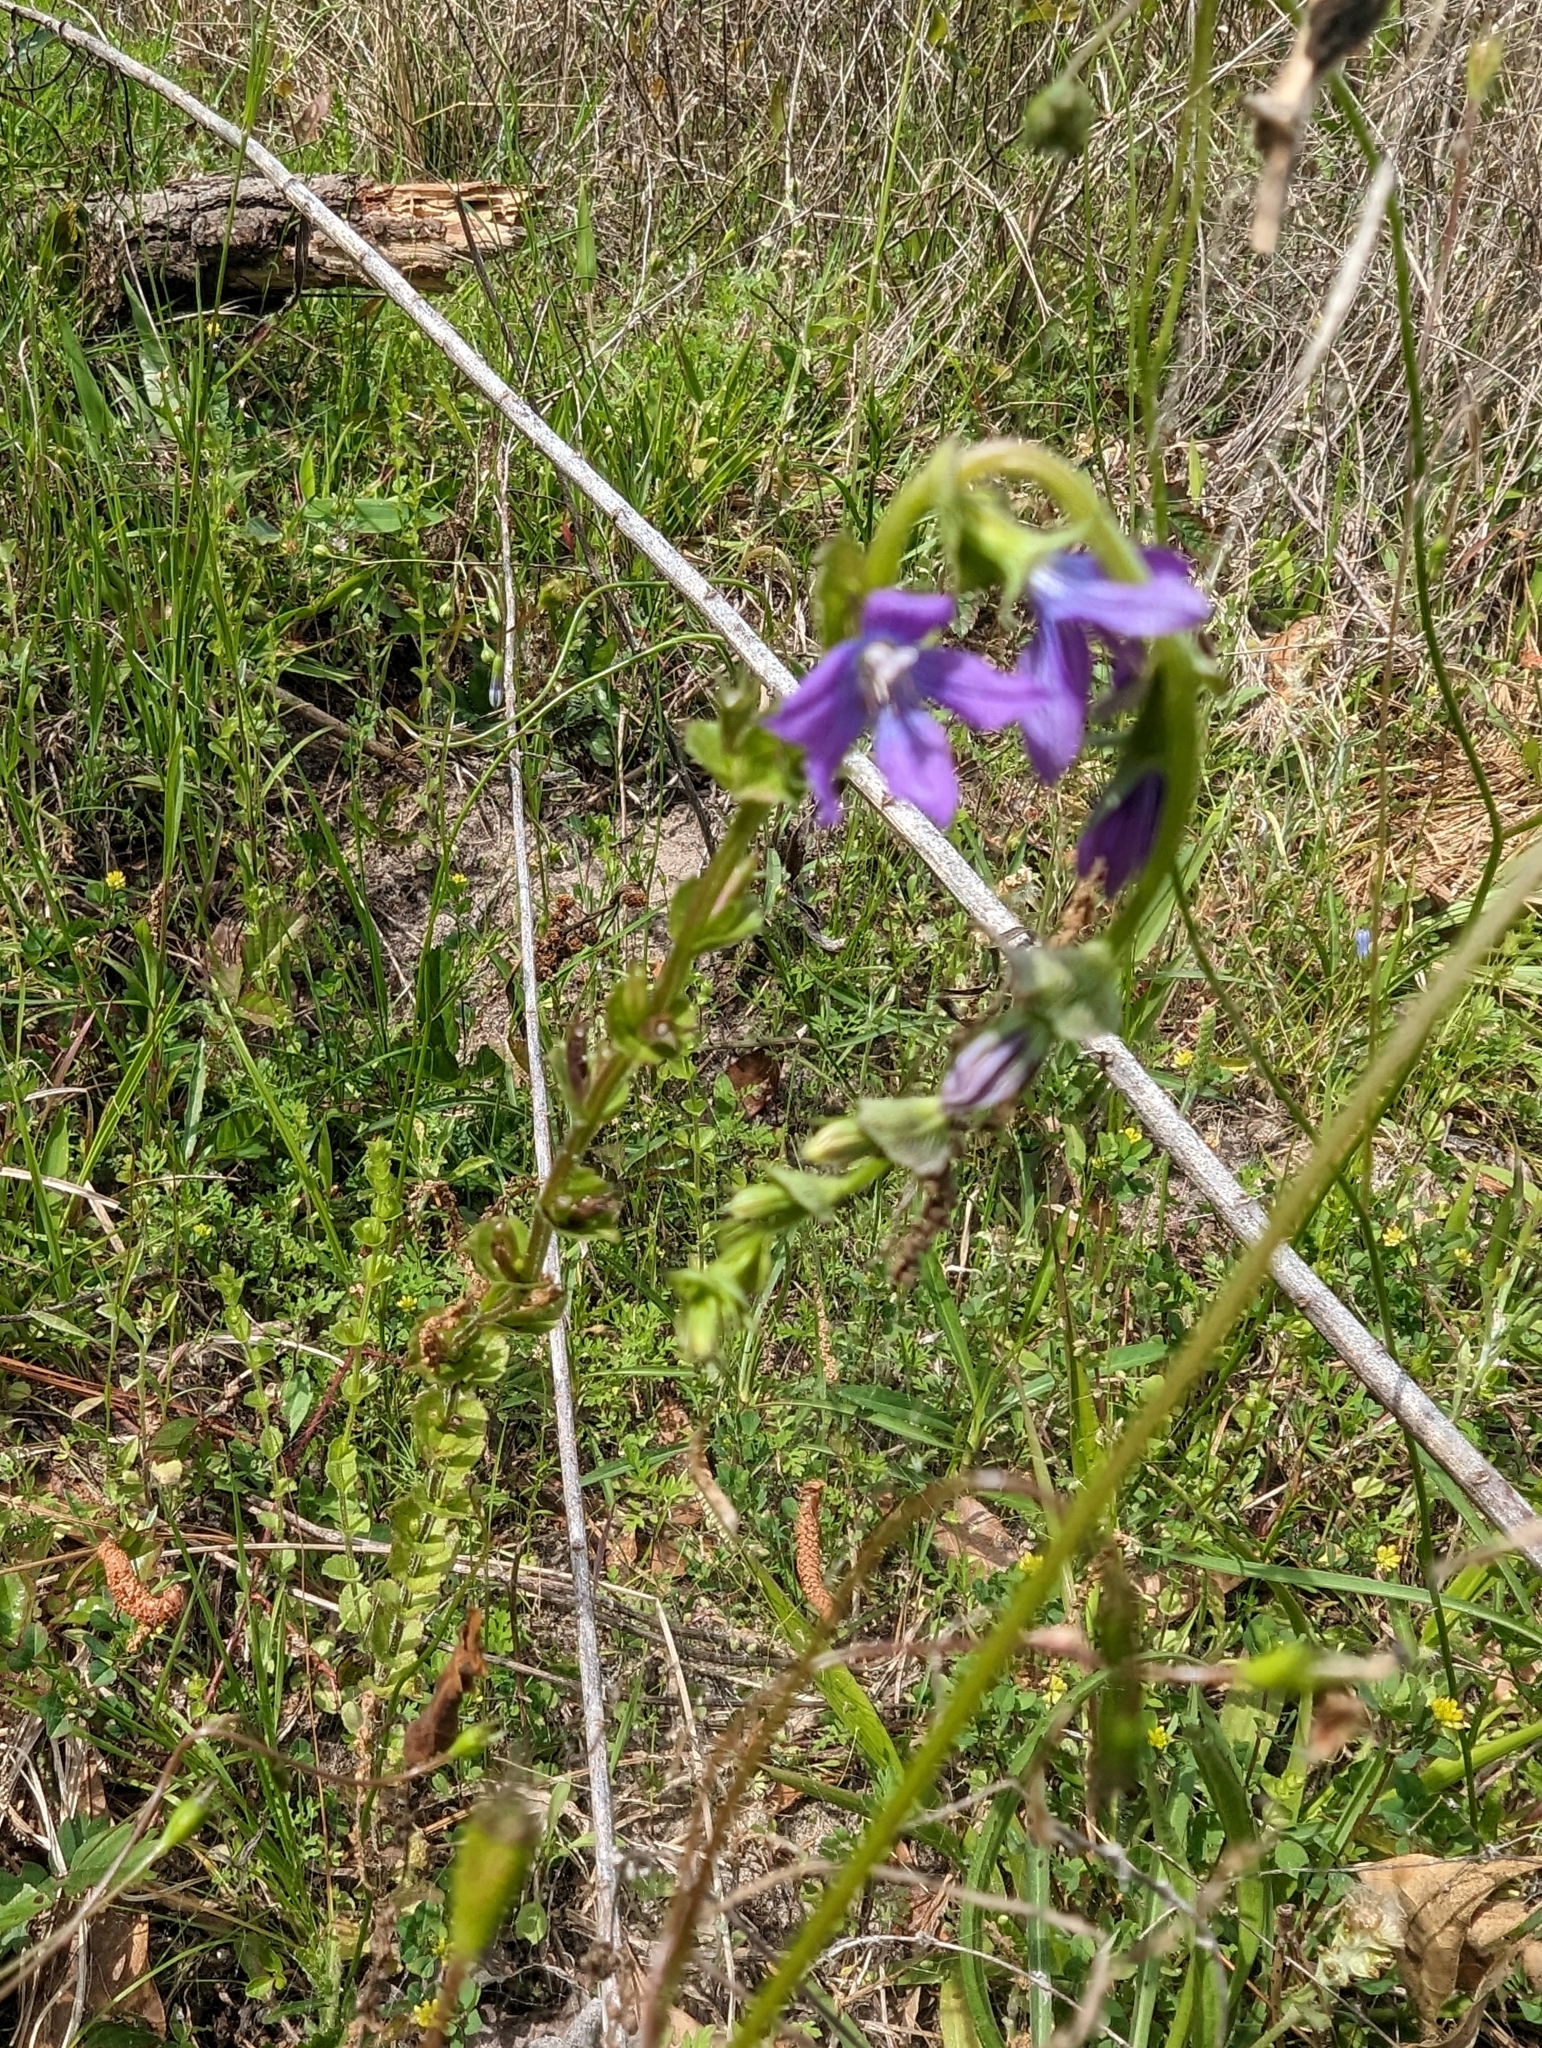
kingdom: Plantae
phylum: Tracheophyta
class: Magnoliopsida
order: Asterales
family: Campanulaceae
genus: Triodanis
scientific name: Triodanis perfoliata
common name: Clasping venus' looking-glass
